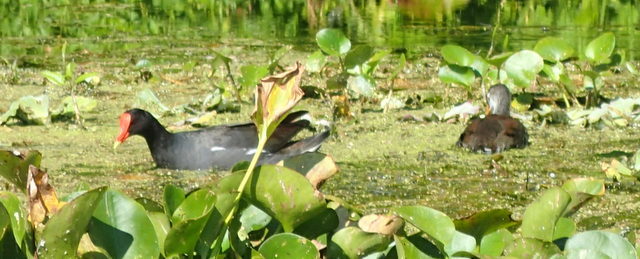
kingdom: Animalia
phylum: Chordata
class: Aves
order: Gruiformes
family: Rallidae
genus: Gallinula
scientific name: Gallinula chloropus
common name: Common moorhen
